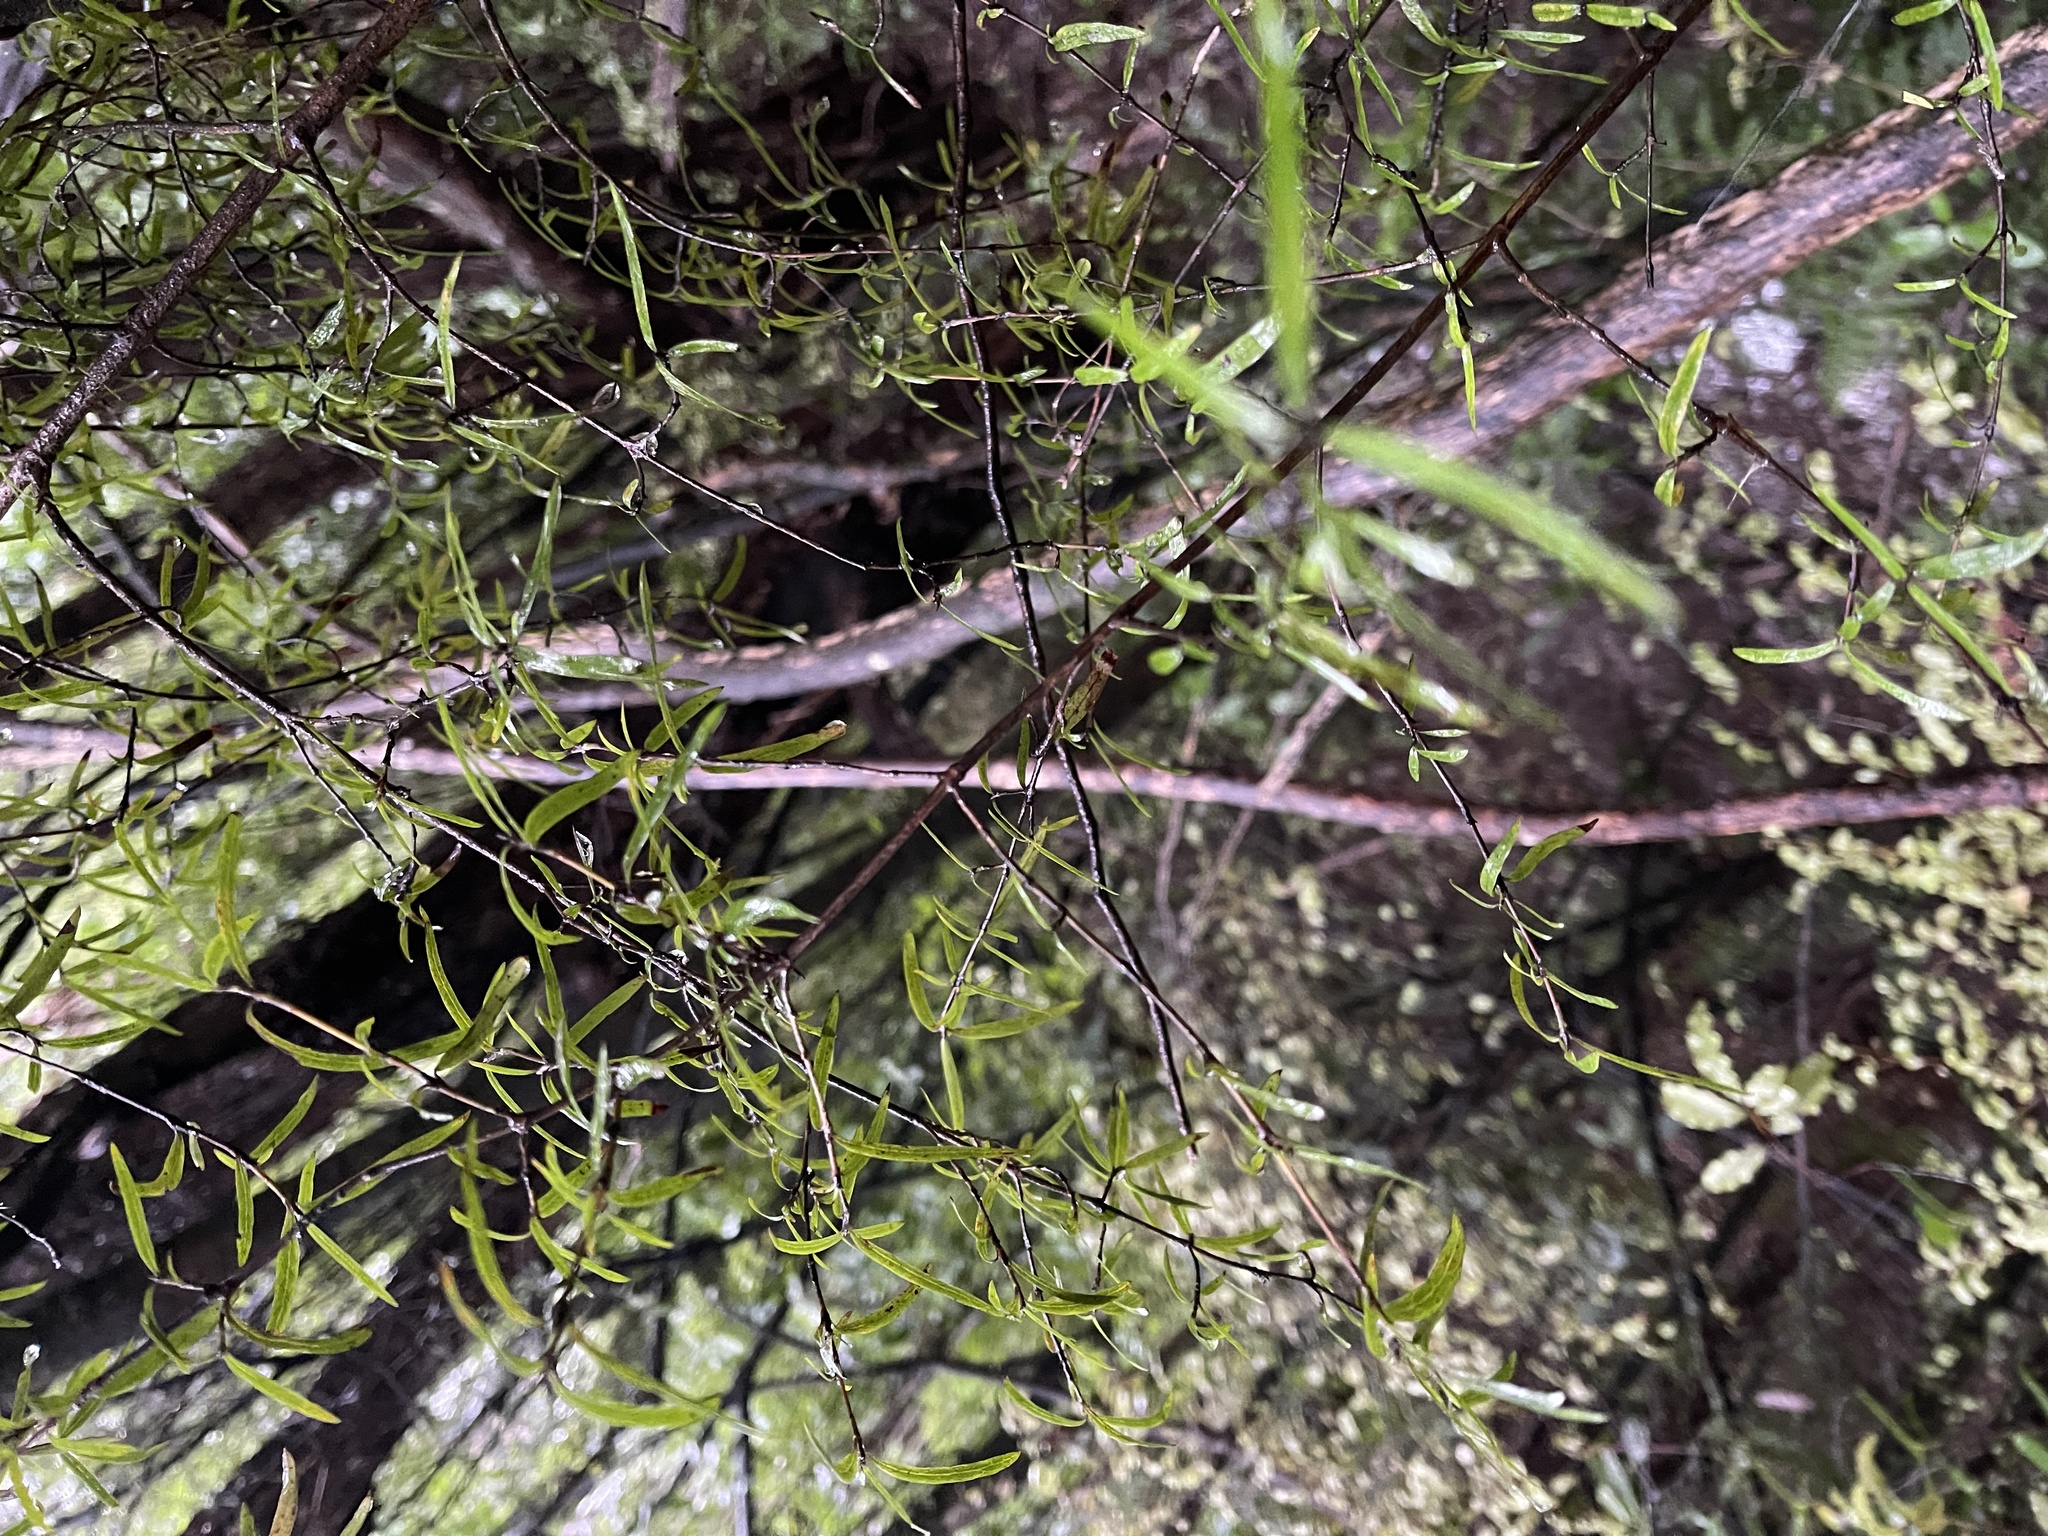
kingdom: Plantae
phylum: Tracheophyta
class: Magnoliopsida
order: Gentianales
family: Rubiaceae
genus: Coprosma
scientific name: Coprosma linariifolia
